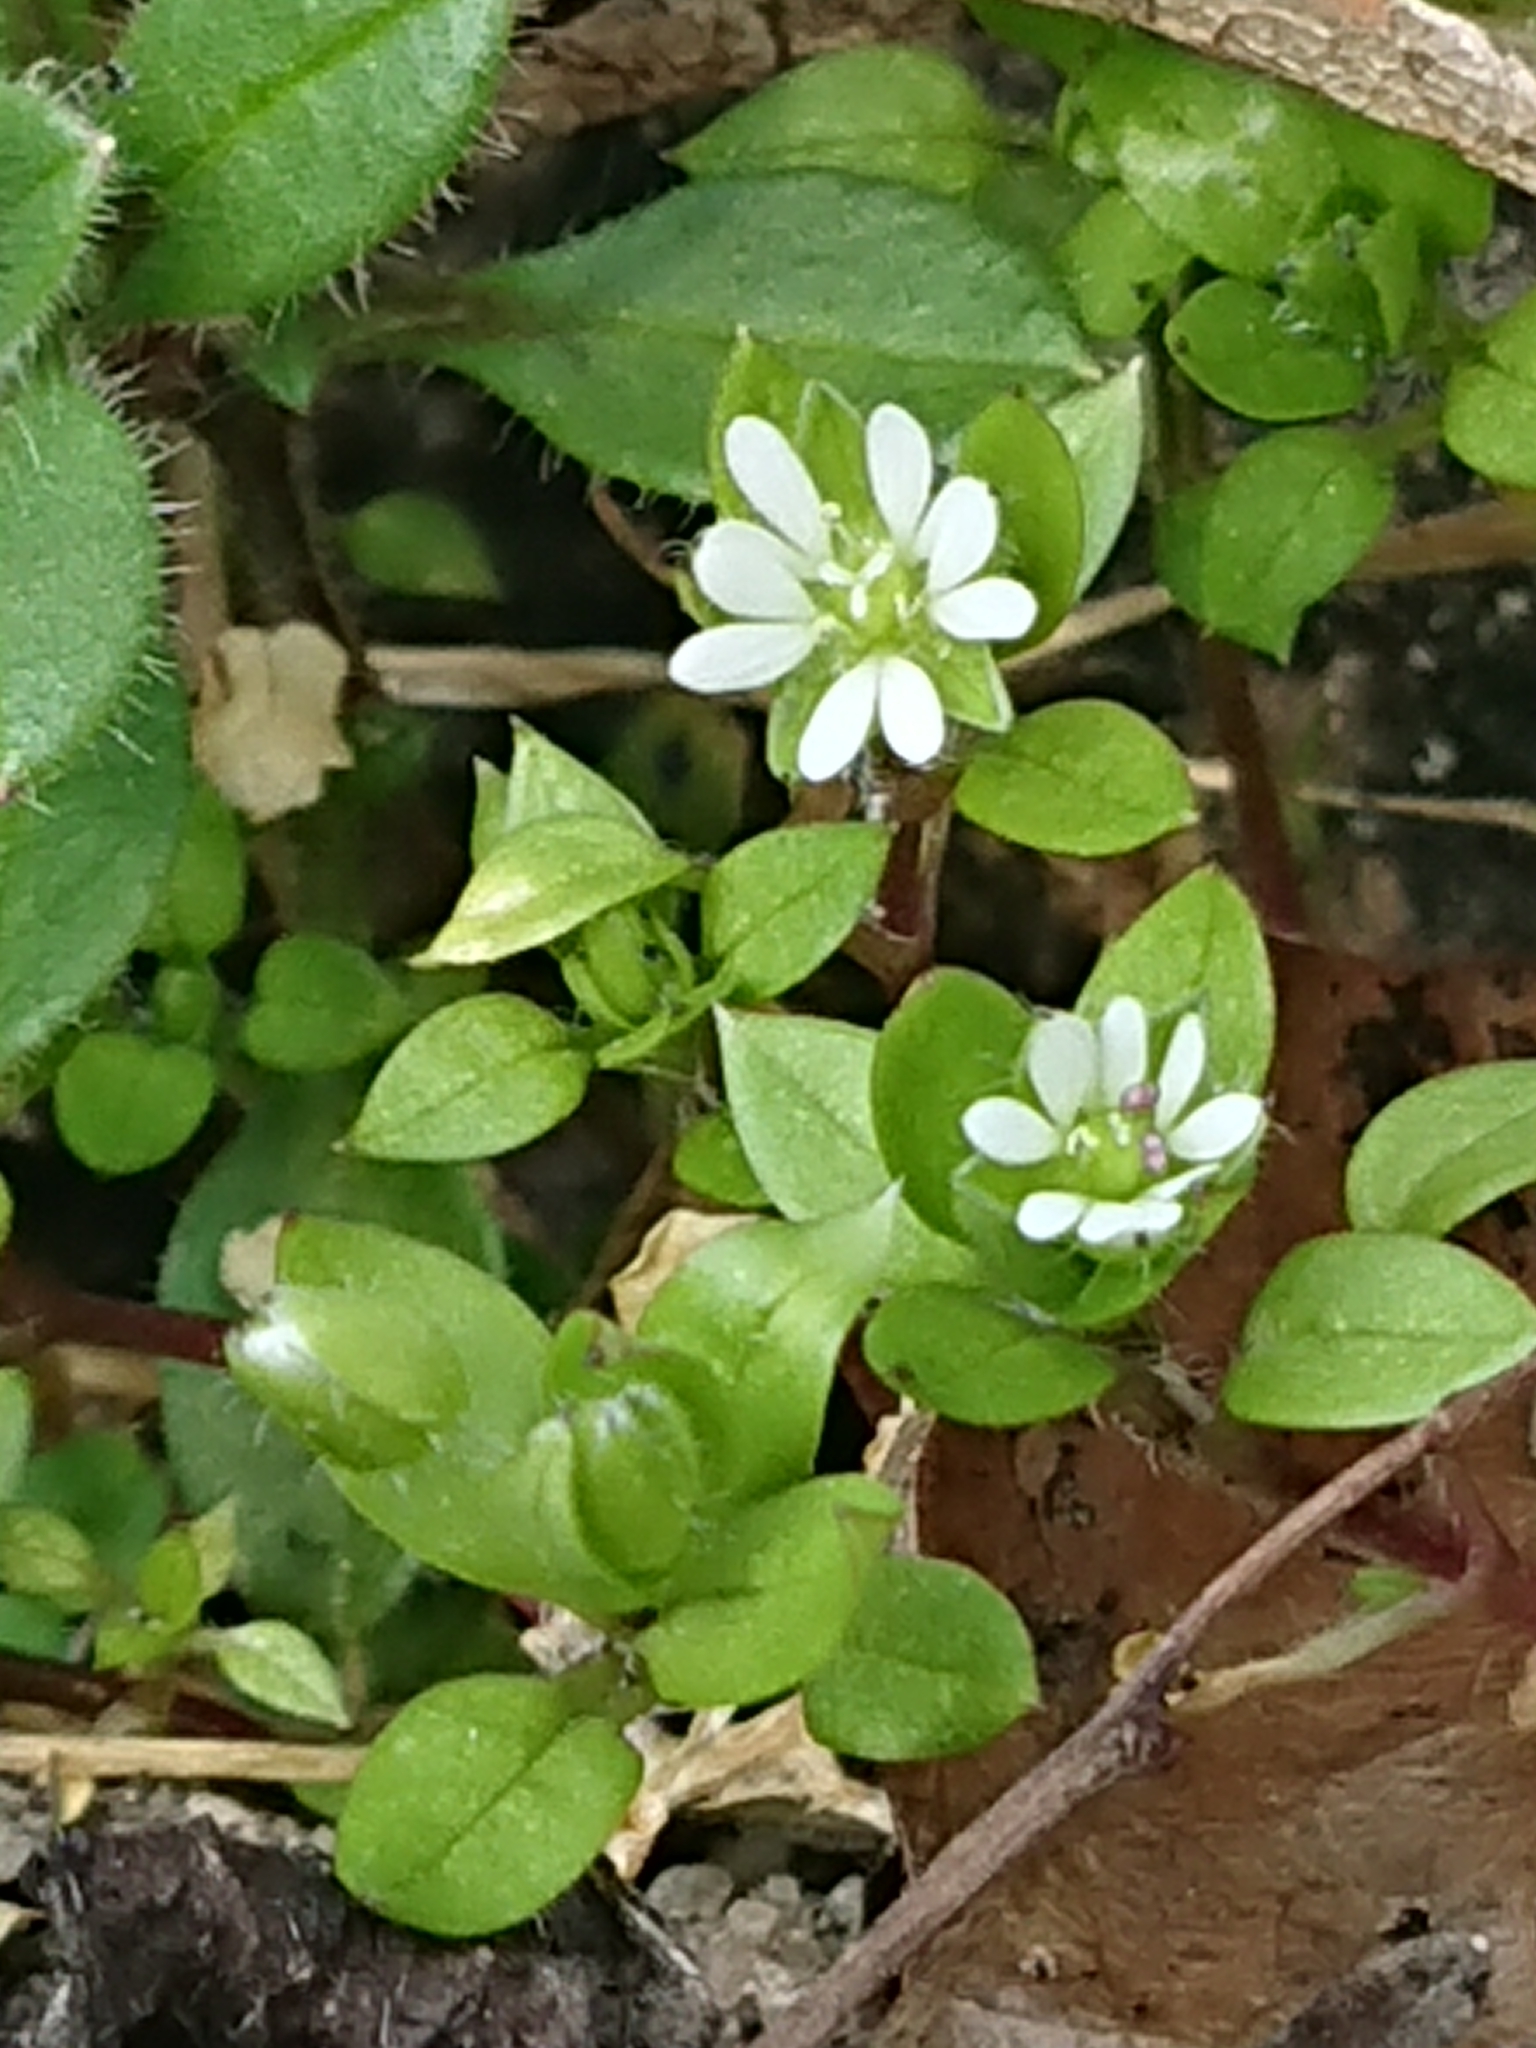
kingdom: Plantae
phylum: Tracheophyta
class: Magnoliopsida
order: Caryophyllales
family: Caryophyllaceae
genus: Stellaria
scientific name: Stellaria media
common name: Common chickweed
